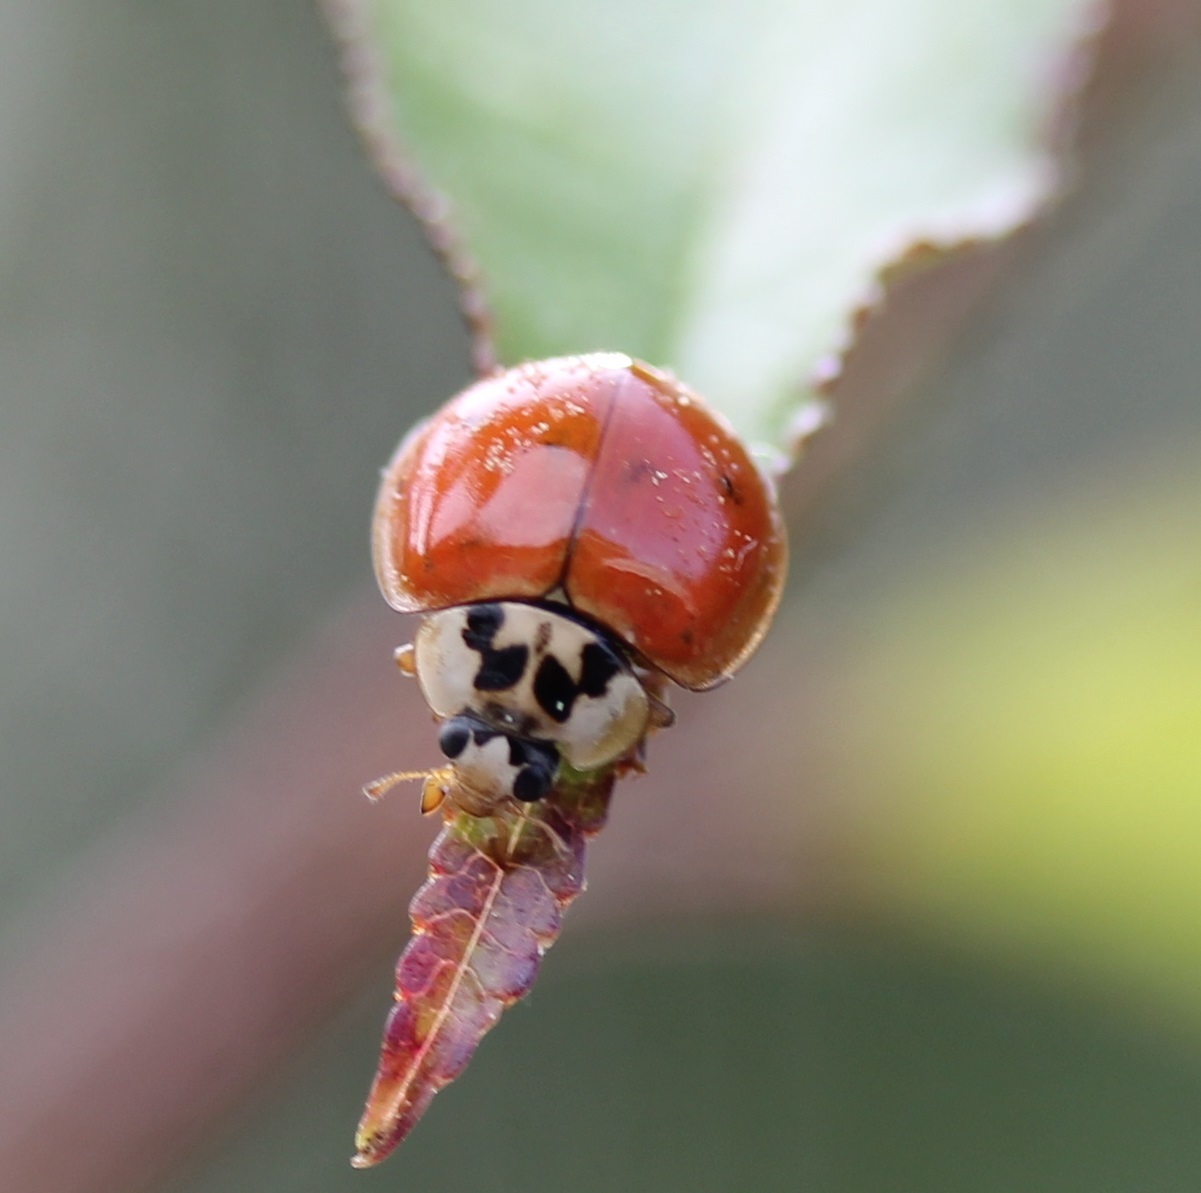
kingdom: Animalia
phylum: Arthropoda
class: Insecta
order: Coleoptera
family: Coccinellidae
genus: Harmonia
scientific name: Harmonia axyridis
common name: Harlequin ladybird
